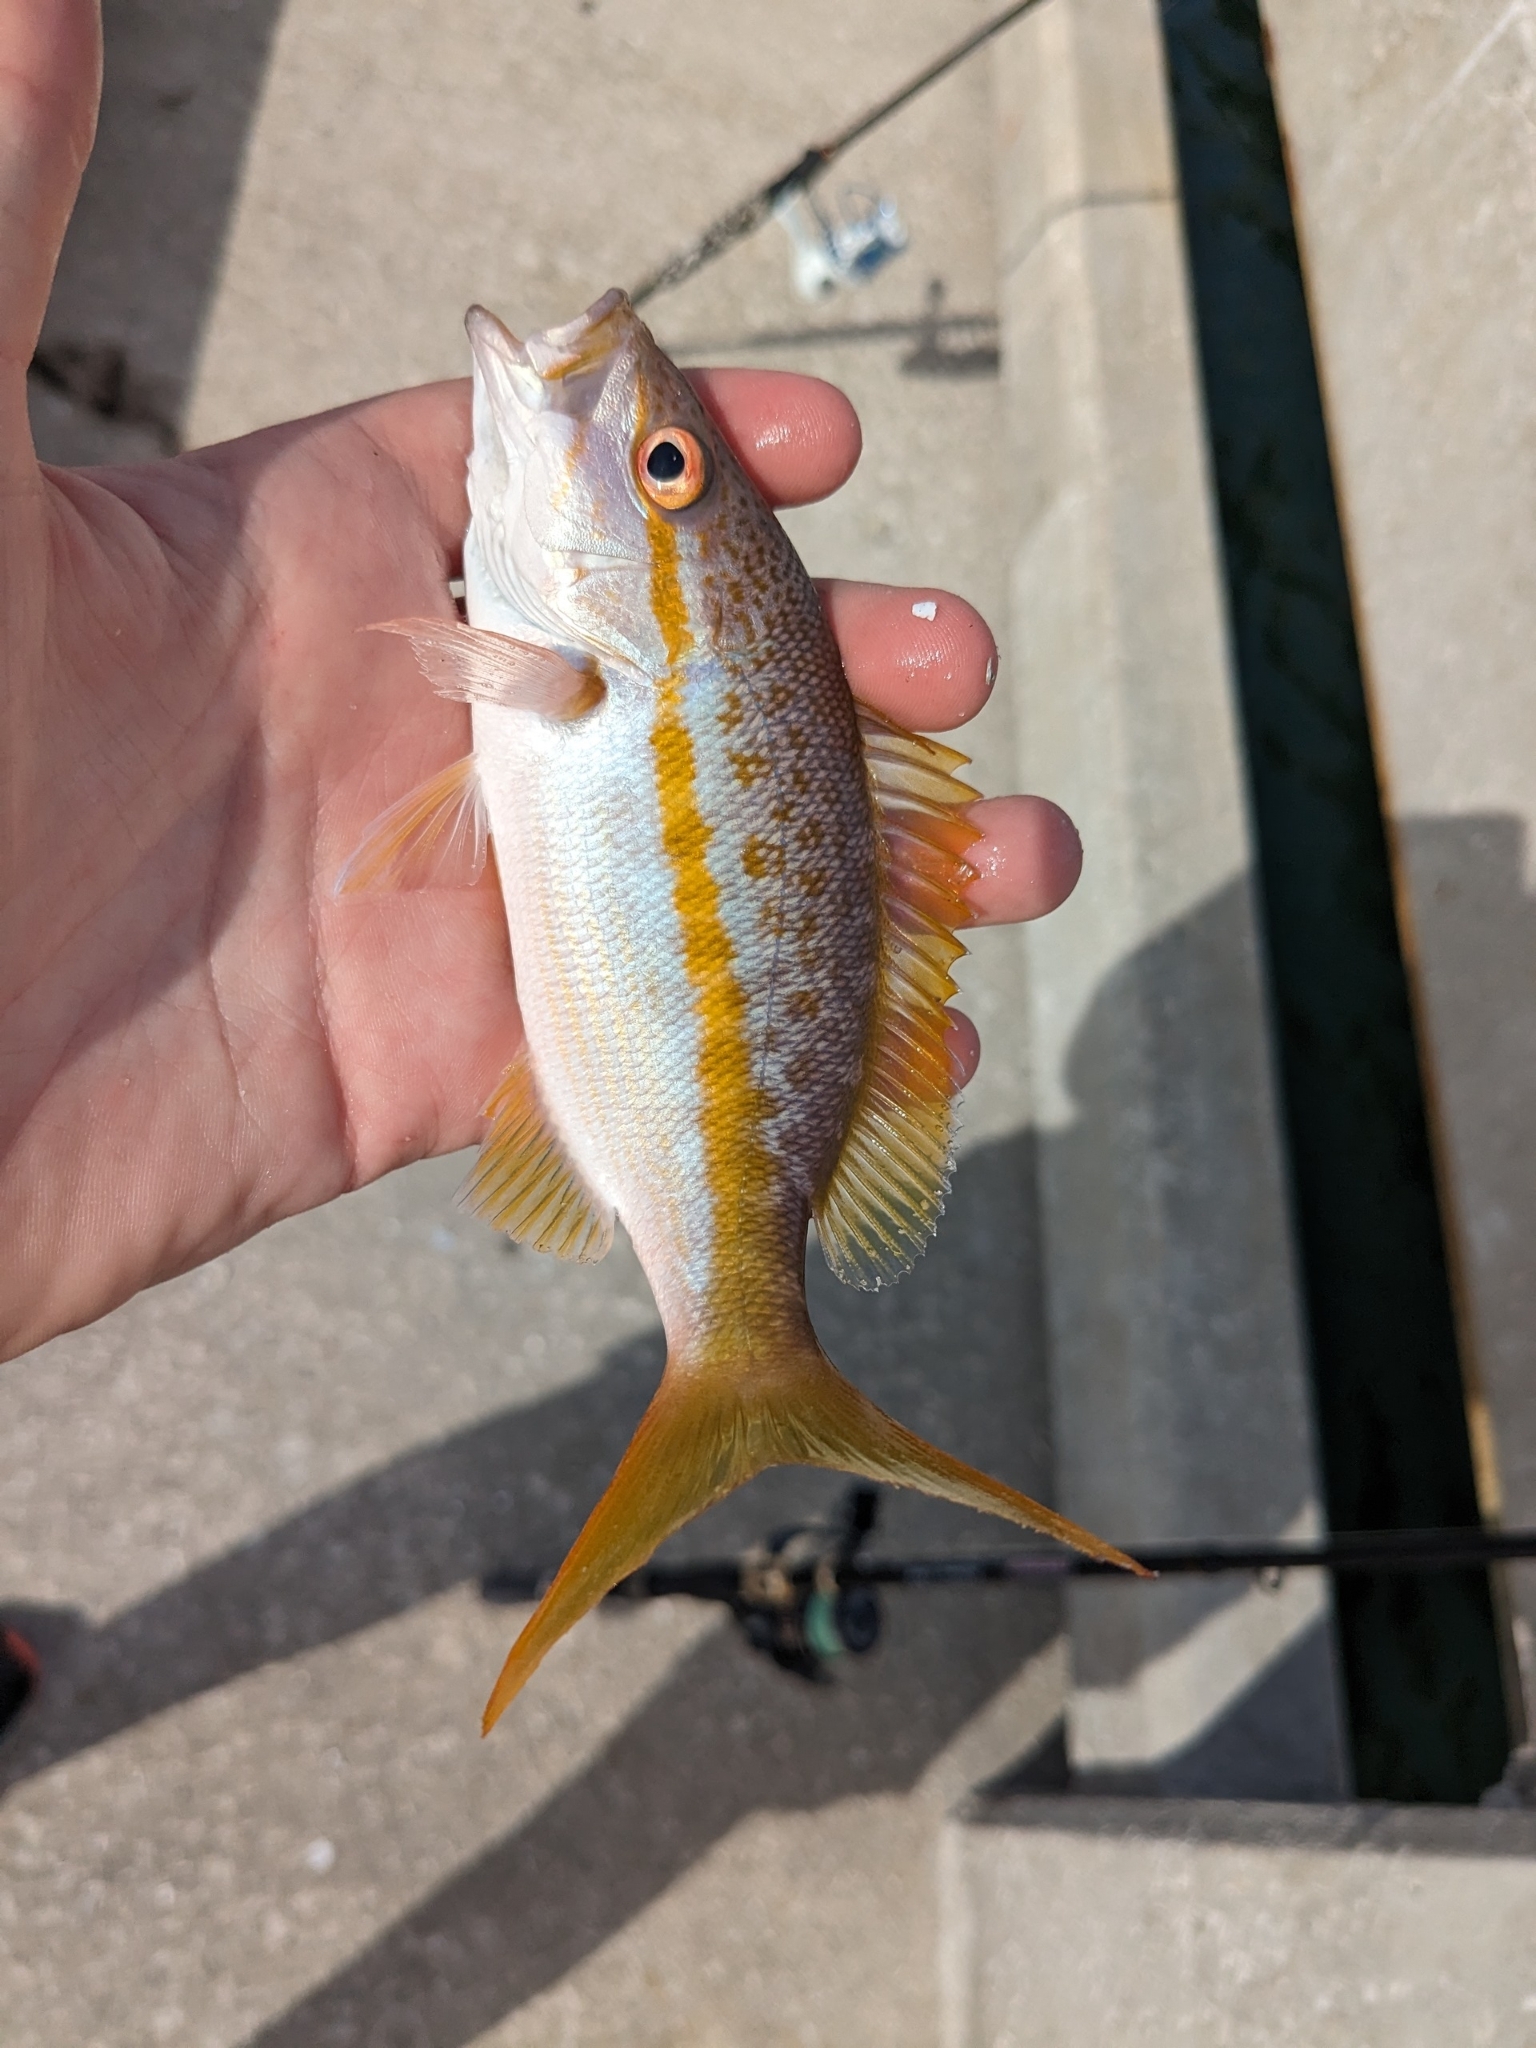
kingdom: Animalia
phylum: Chordata
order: Perciformes
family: Lutjanidae
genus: Ocyurus
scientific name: Ocyurus chrysurus
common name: Yellowtail snapper
